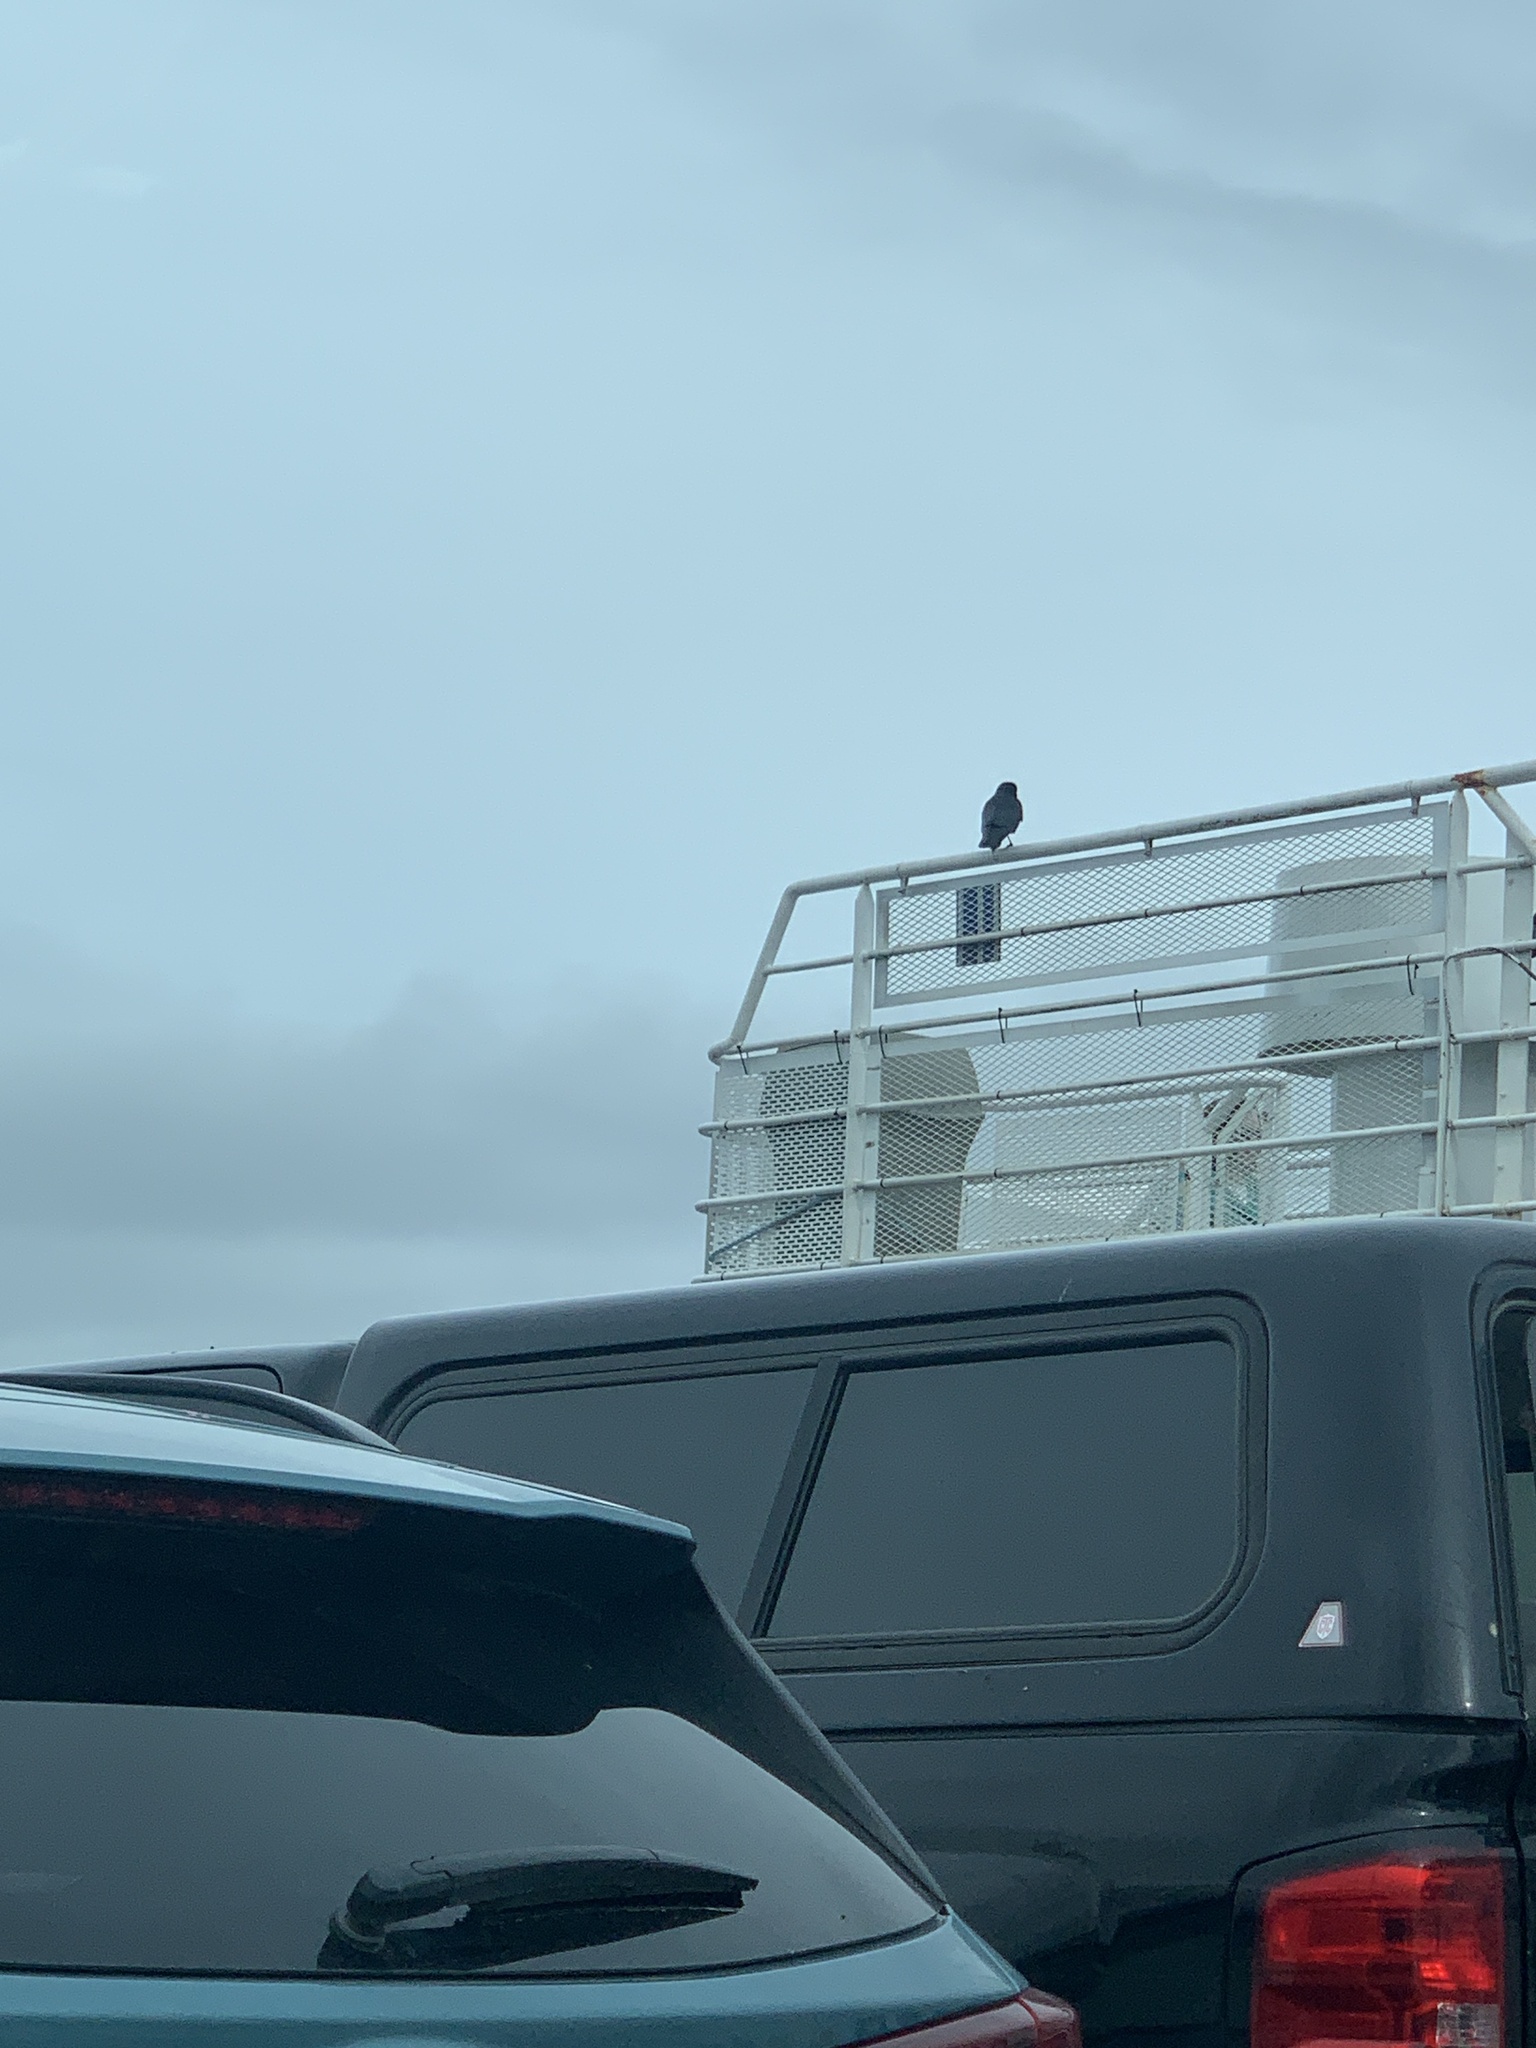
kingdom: Animalia
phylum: Chordata
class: Aves
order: Passeriformes
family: Corvidae
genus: Corvus
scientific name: Corvus brachyrhynchos
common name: American crow
